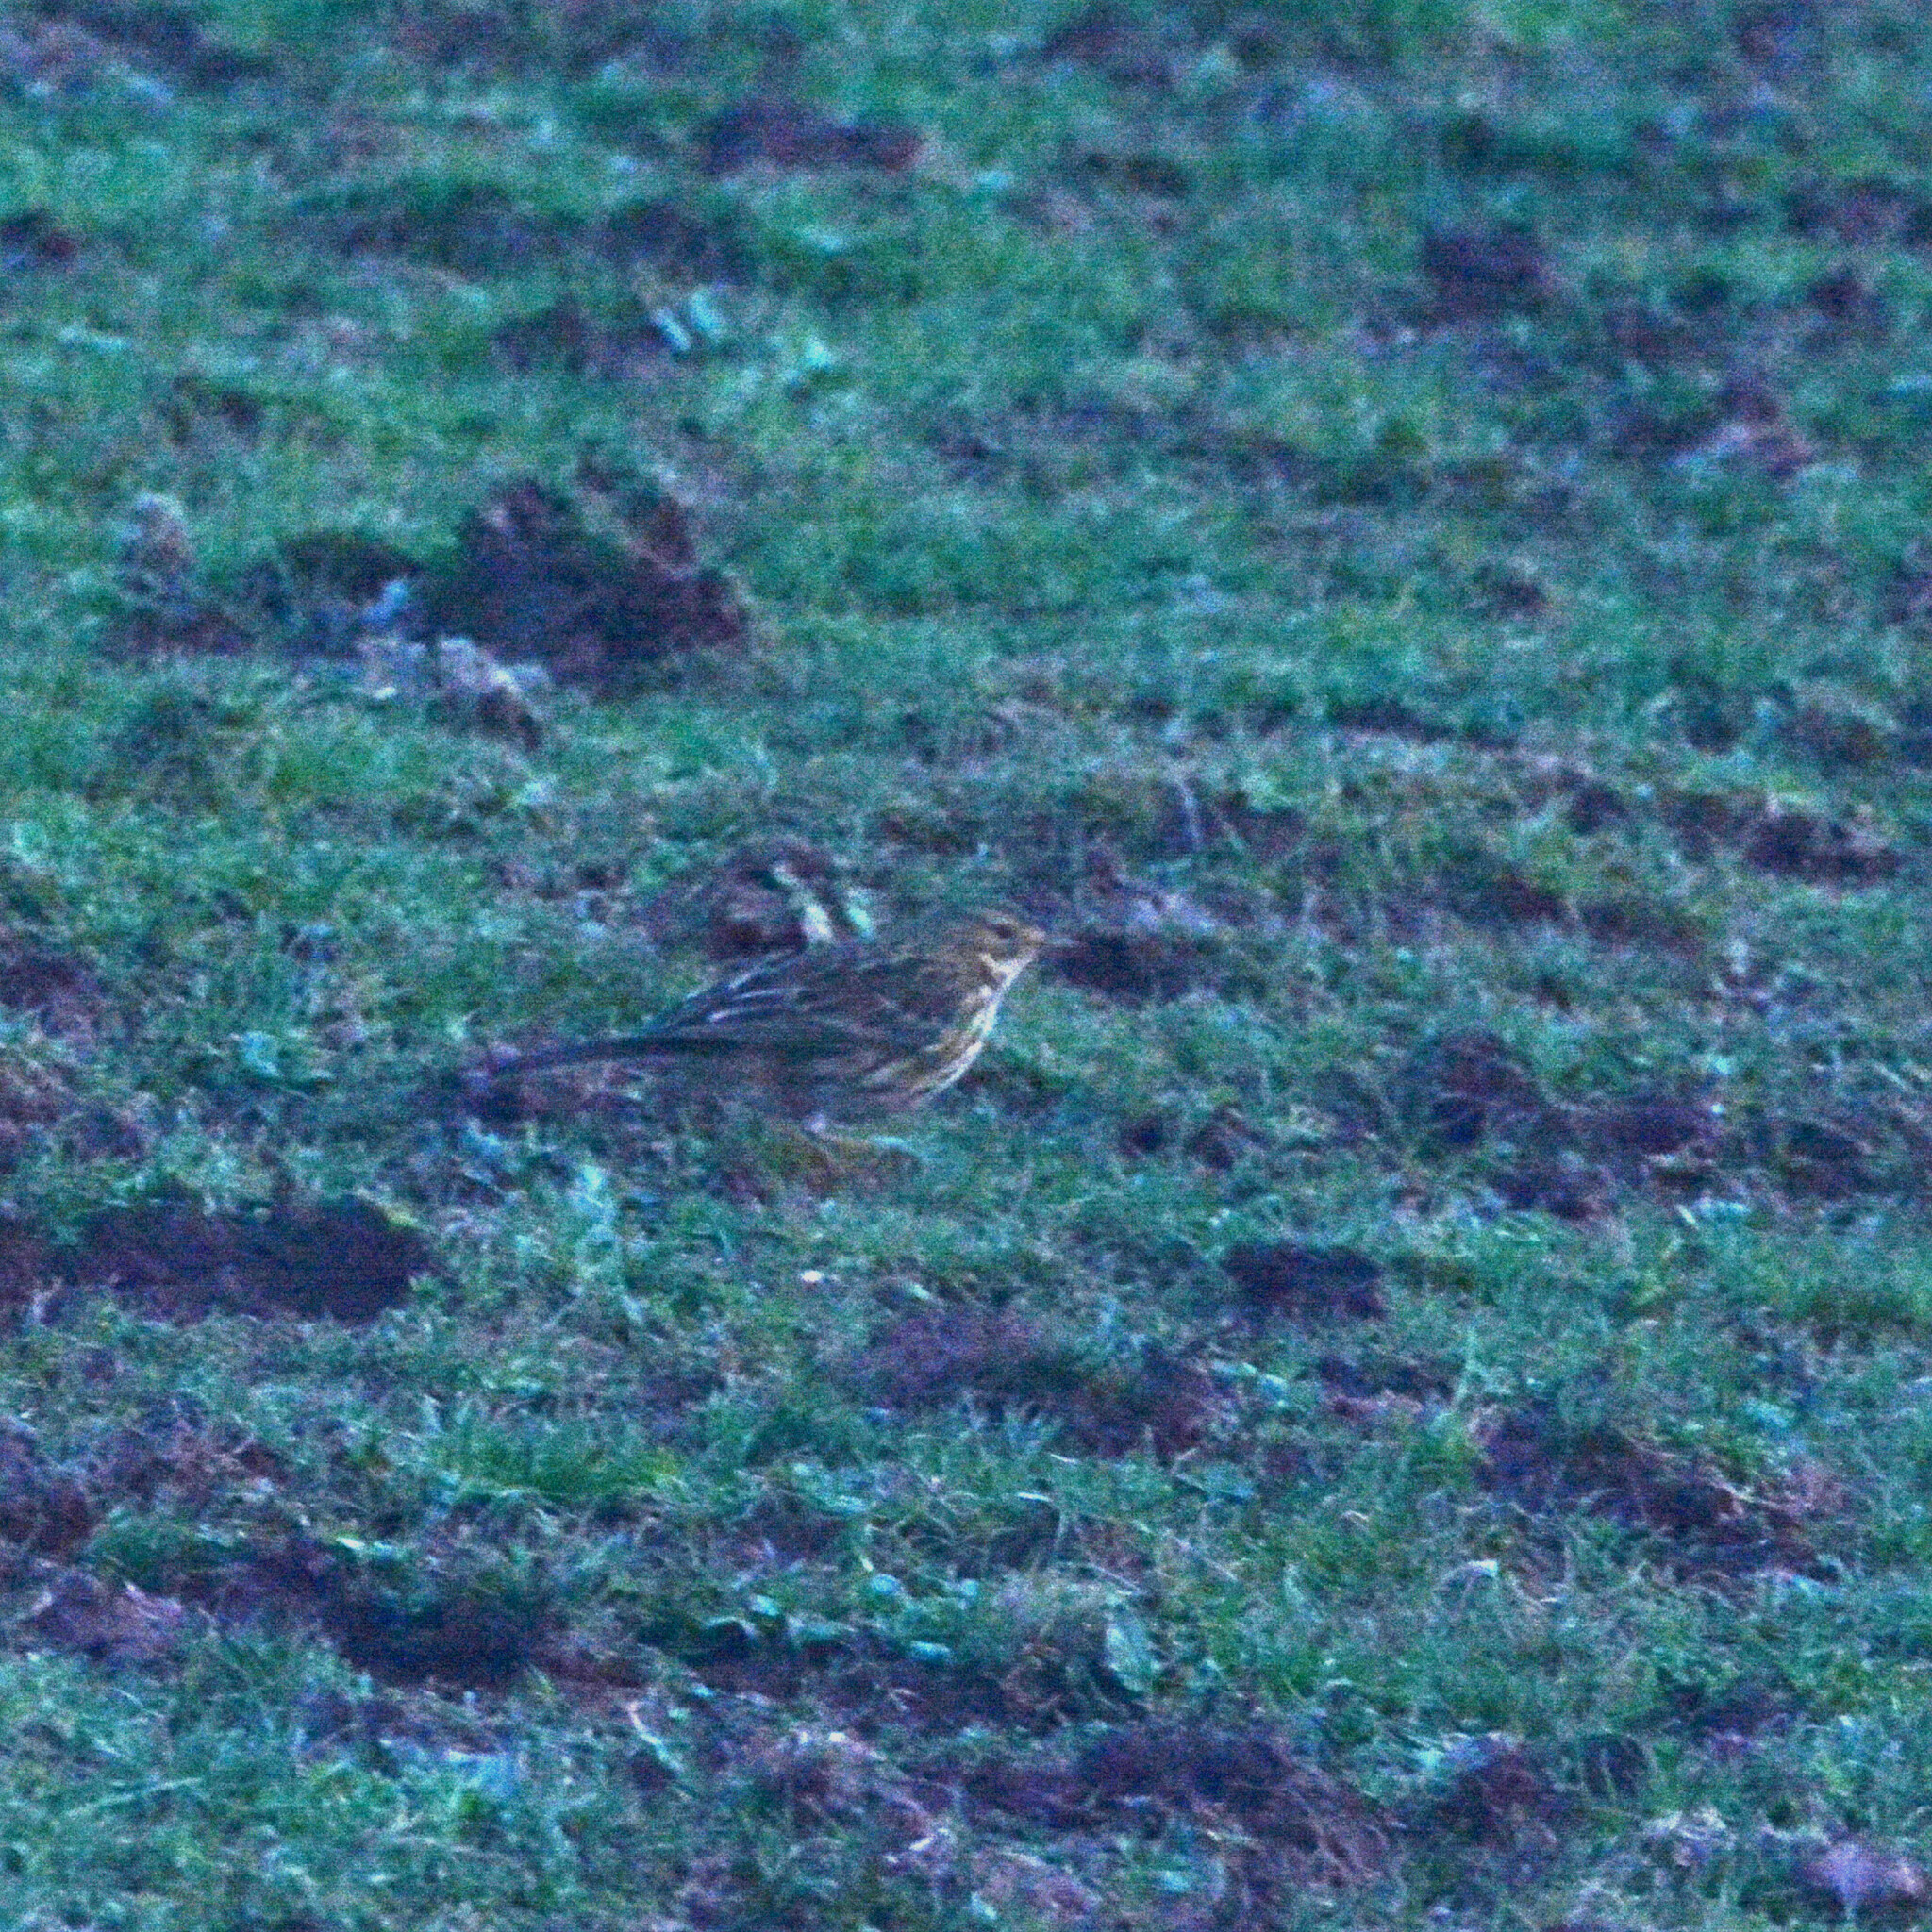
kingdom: Animalia
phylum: Chordata
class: Aves
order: Passeriformes
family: Motacillidae
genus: Anthus
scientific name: Anthus pratensis
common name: Meadow pipit
